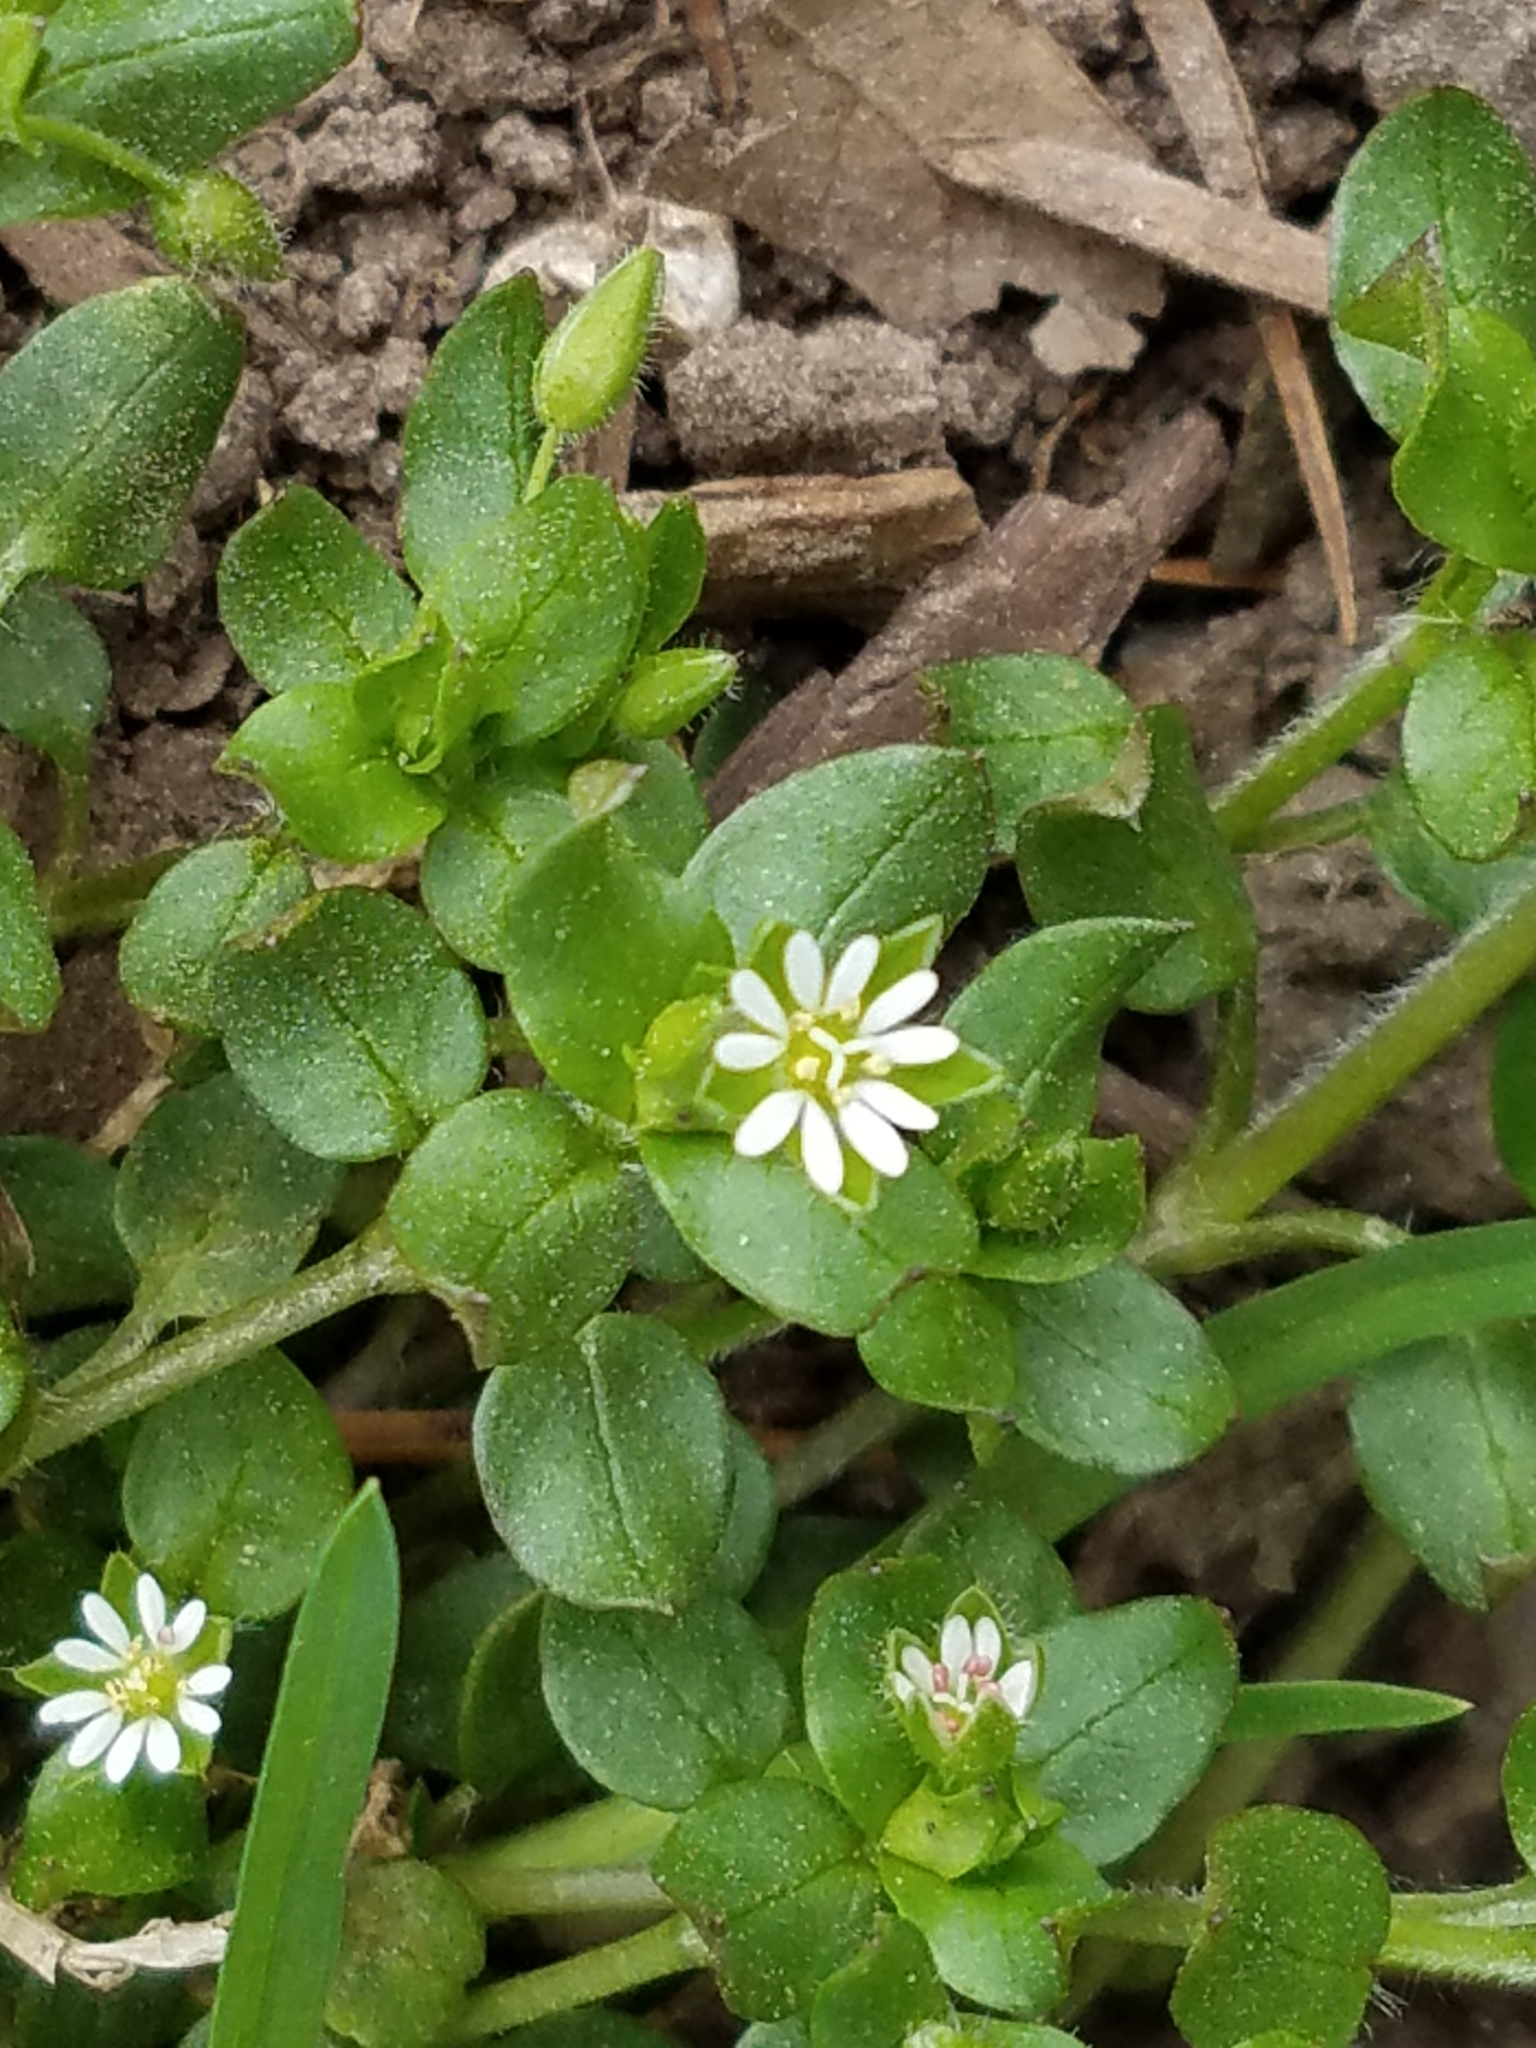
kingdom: Plantae
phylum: Tracheophyta
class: Magnoliopsida
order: Caryophyllales
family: Caryophyllaceae
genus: Stellaria
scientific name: Stellaria media
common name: Common chickweed
